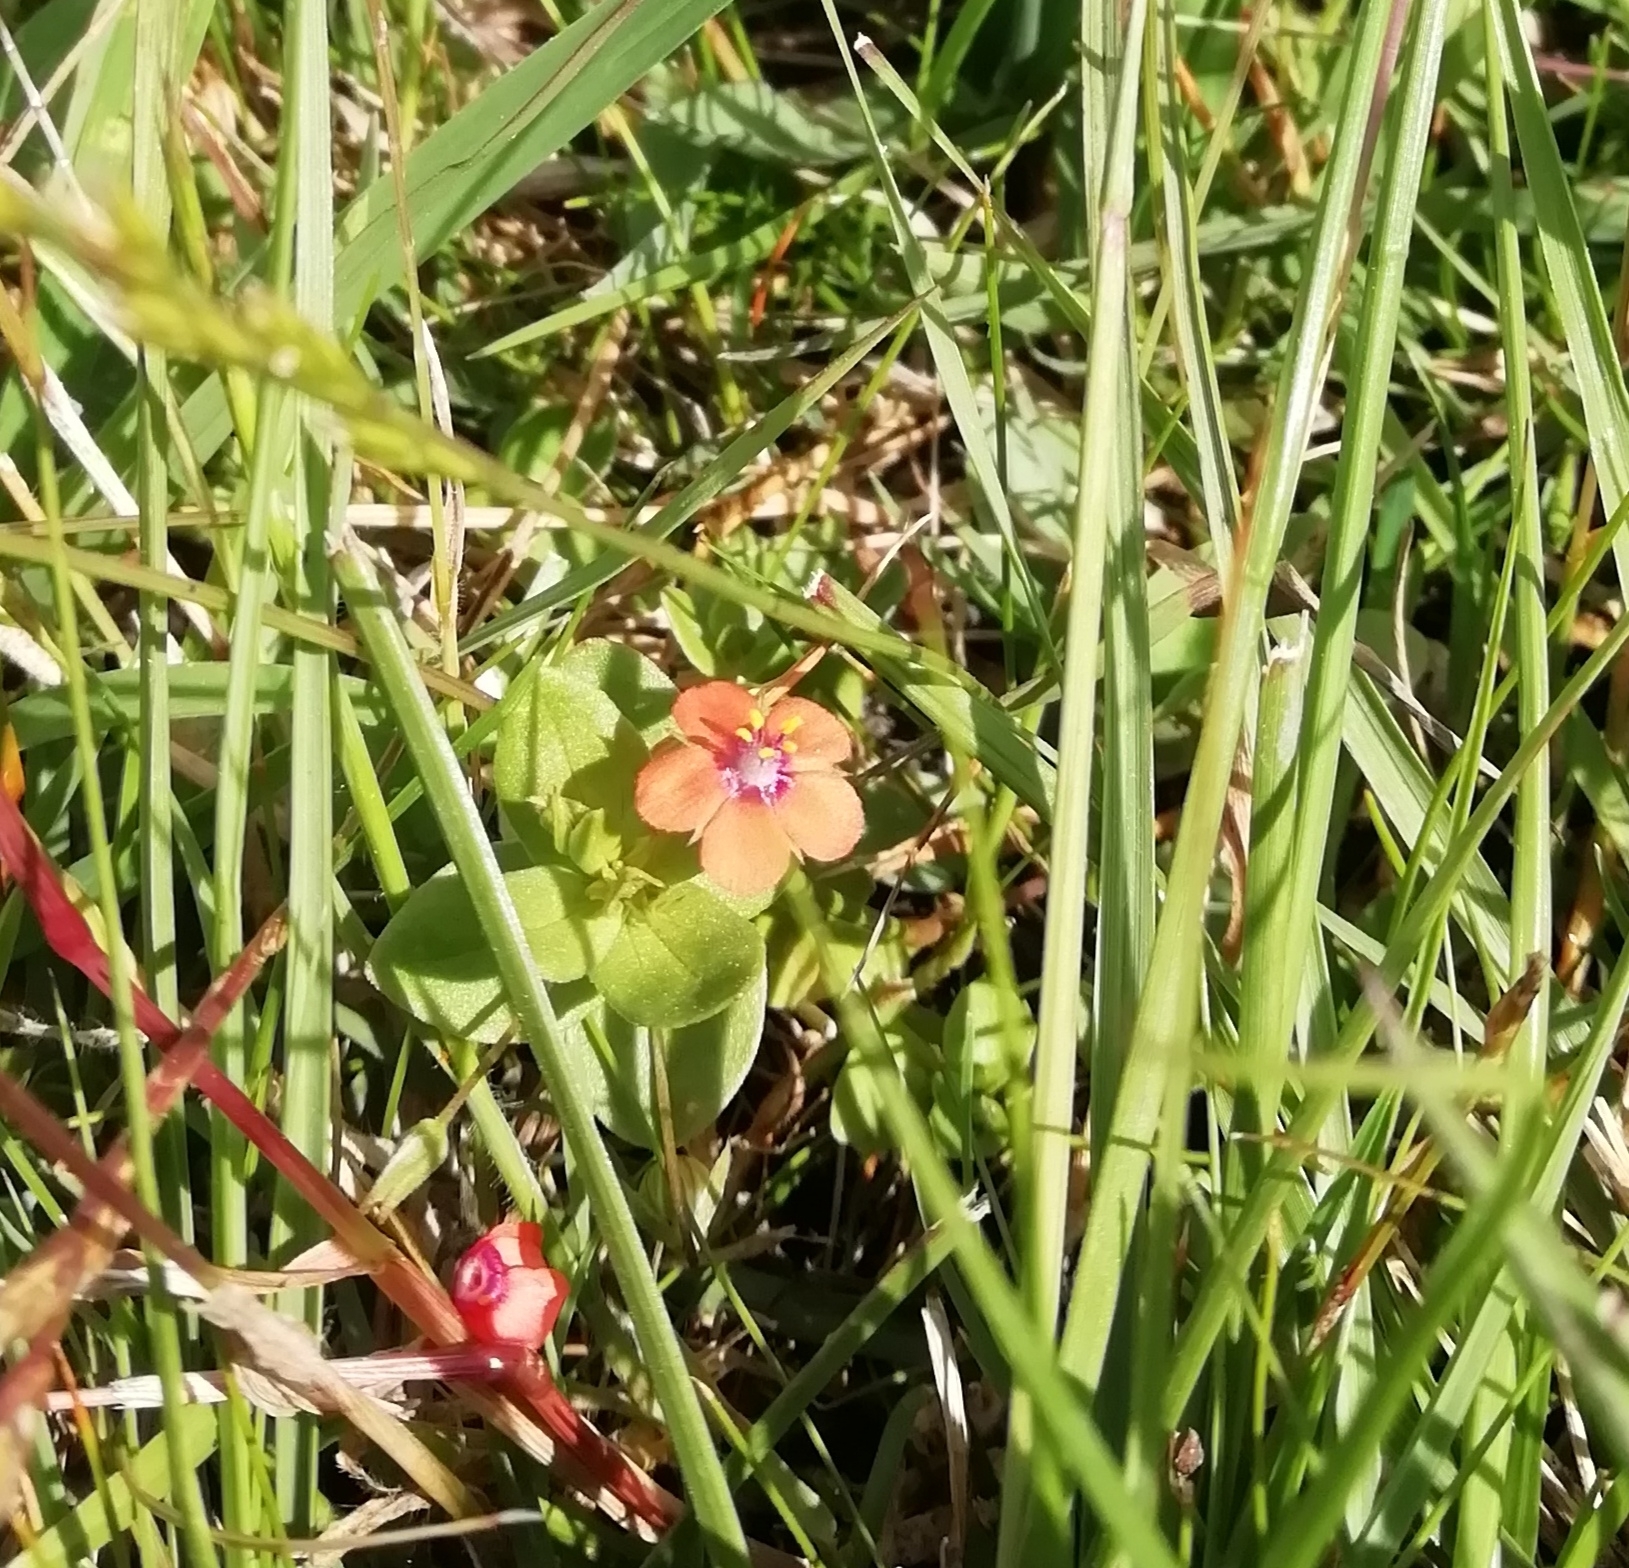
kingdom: Plantae
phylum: Tracheophyta
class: Magnoliopsida
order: Ericales
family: Primulaceae
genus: Lysimachia
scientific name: Lysimachia arvensis
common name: Scarlet pimpernel
